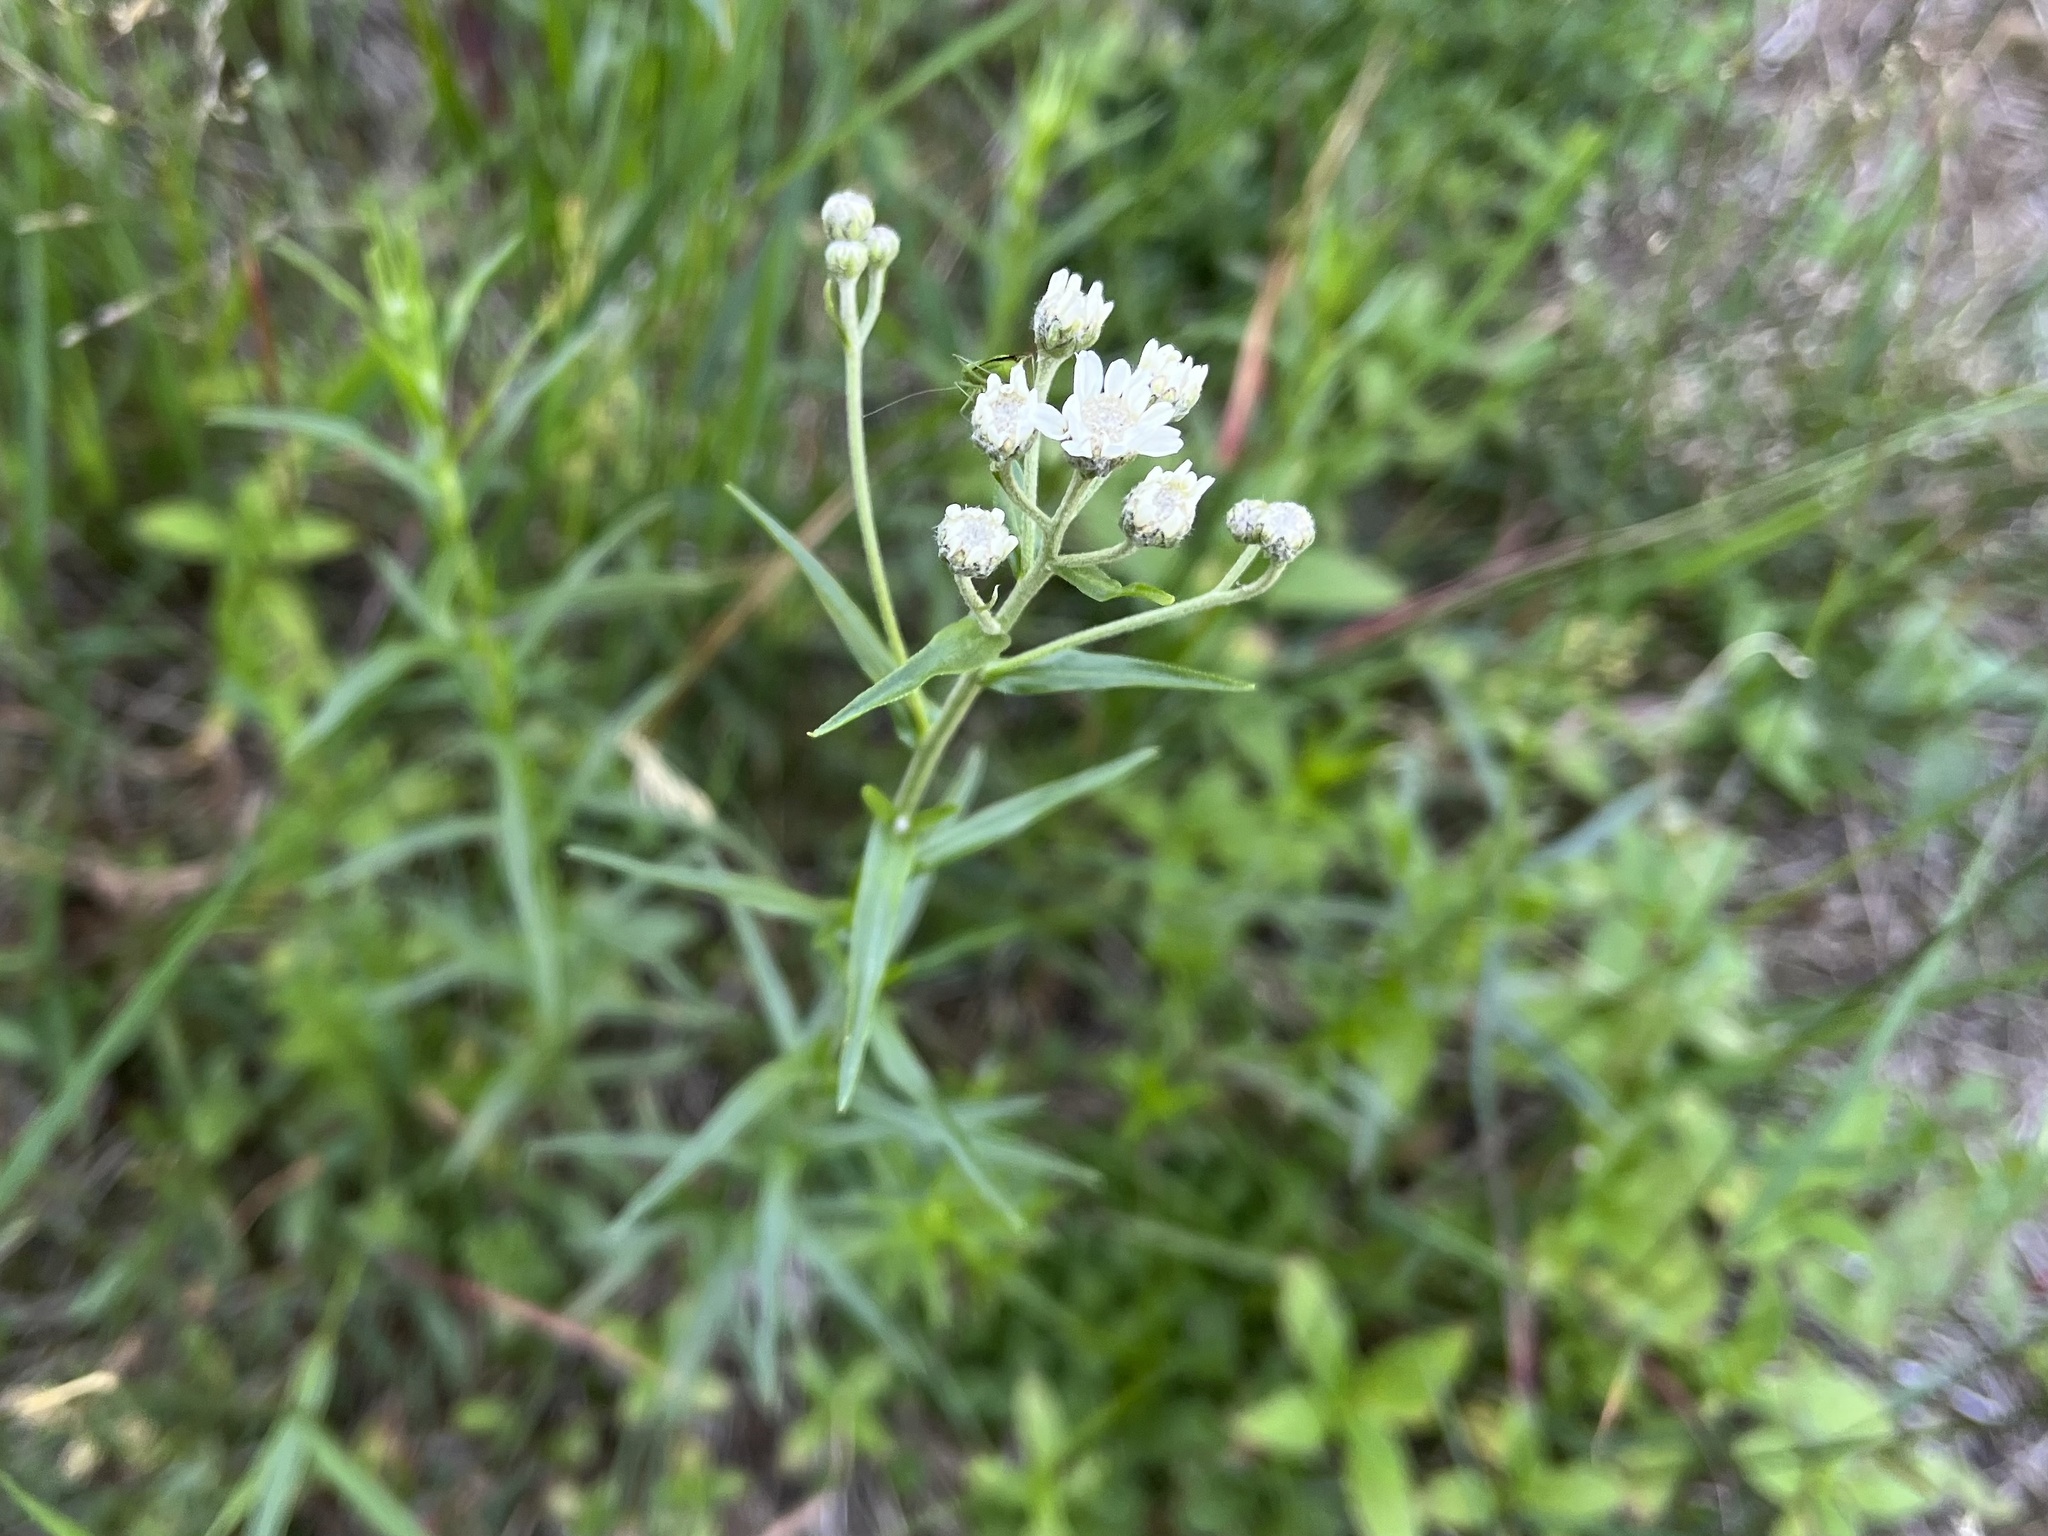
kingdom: Plantae
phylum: Tracheophyta
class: Magnoliopsida
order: Asterales
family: Asteraceae
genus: Achillea
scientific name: Achillea ptarmica
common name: Sneezeweed
